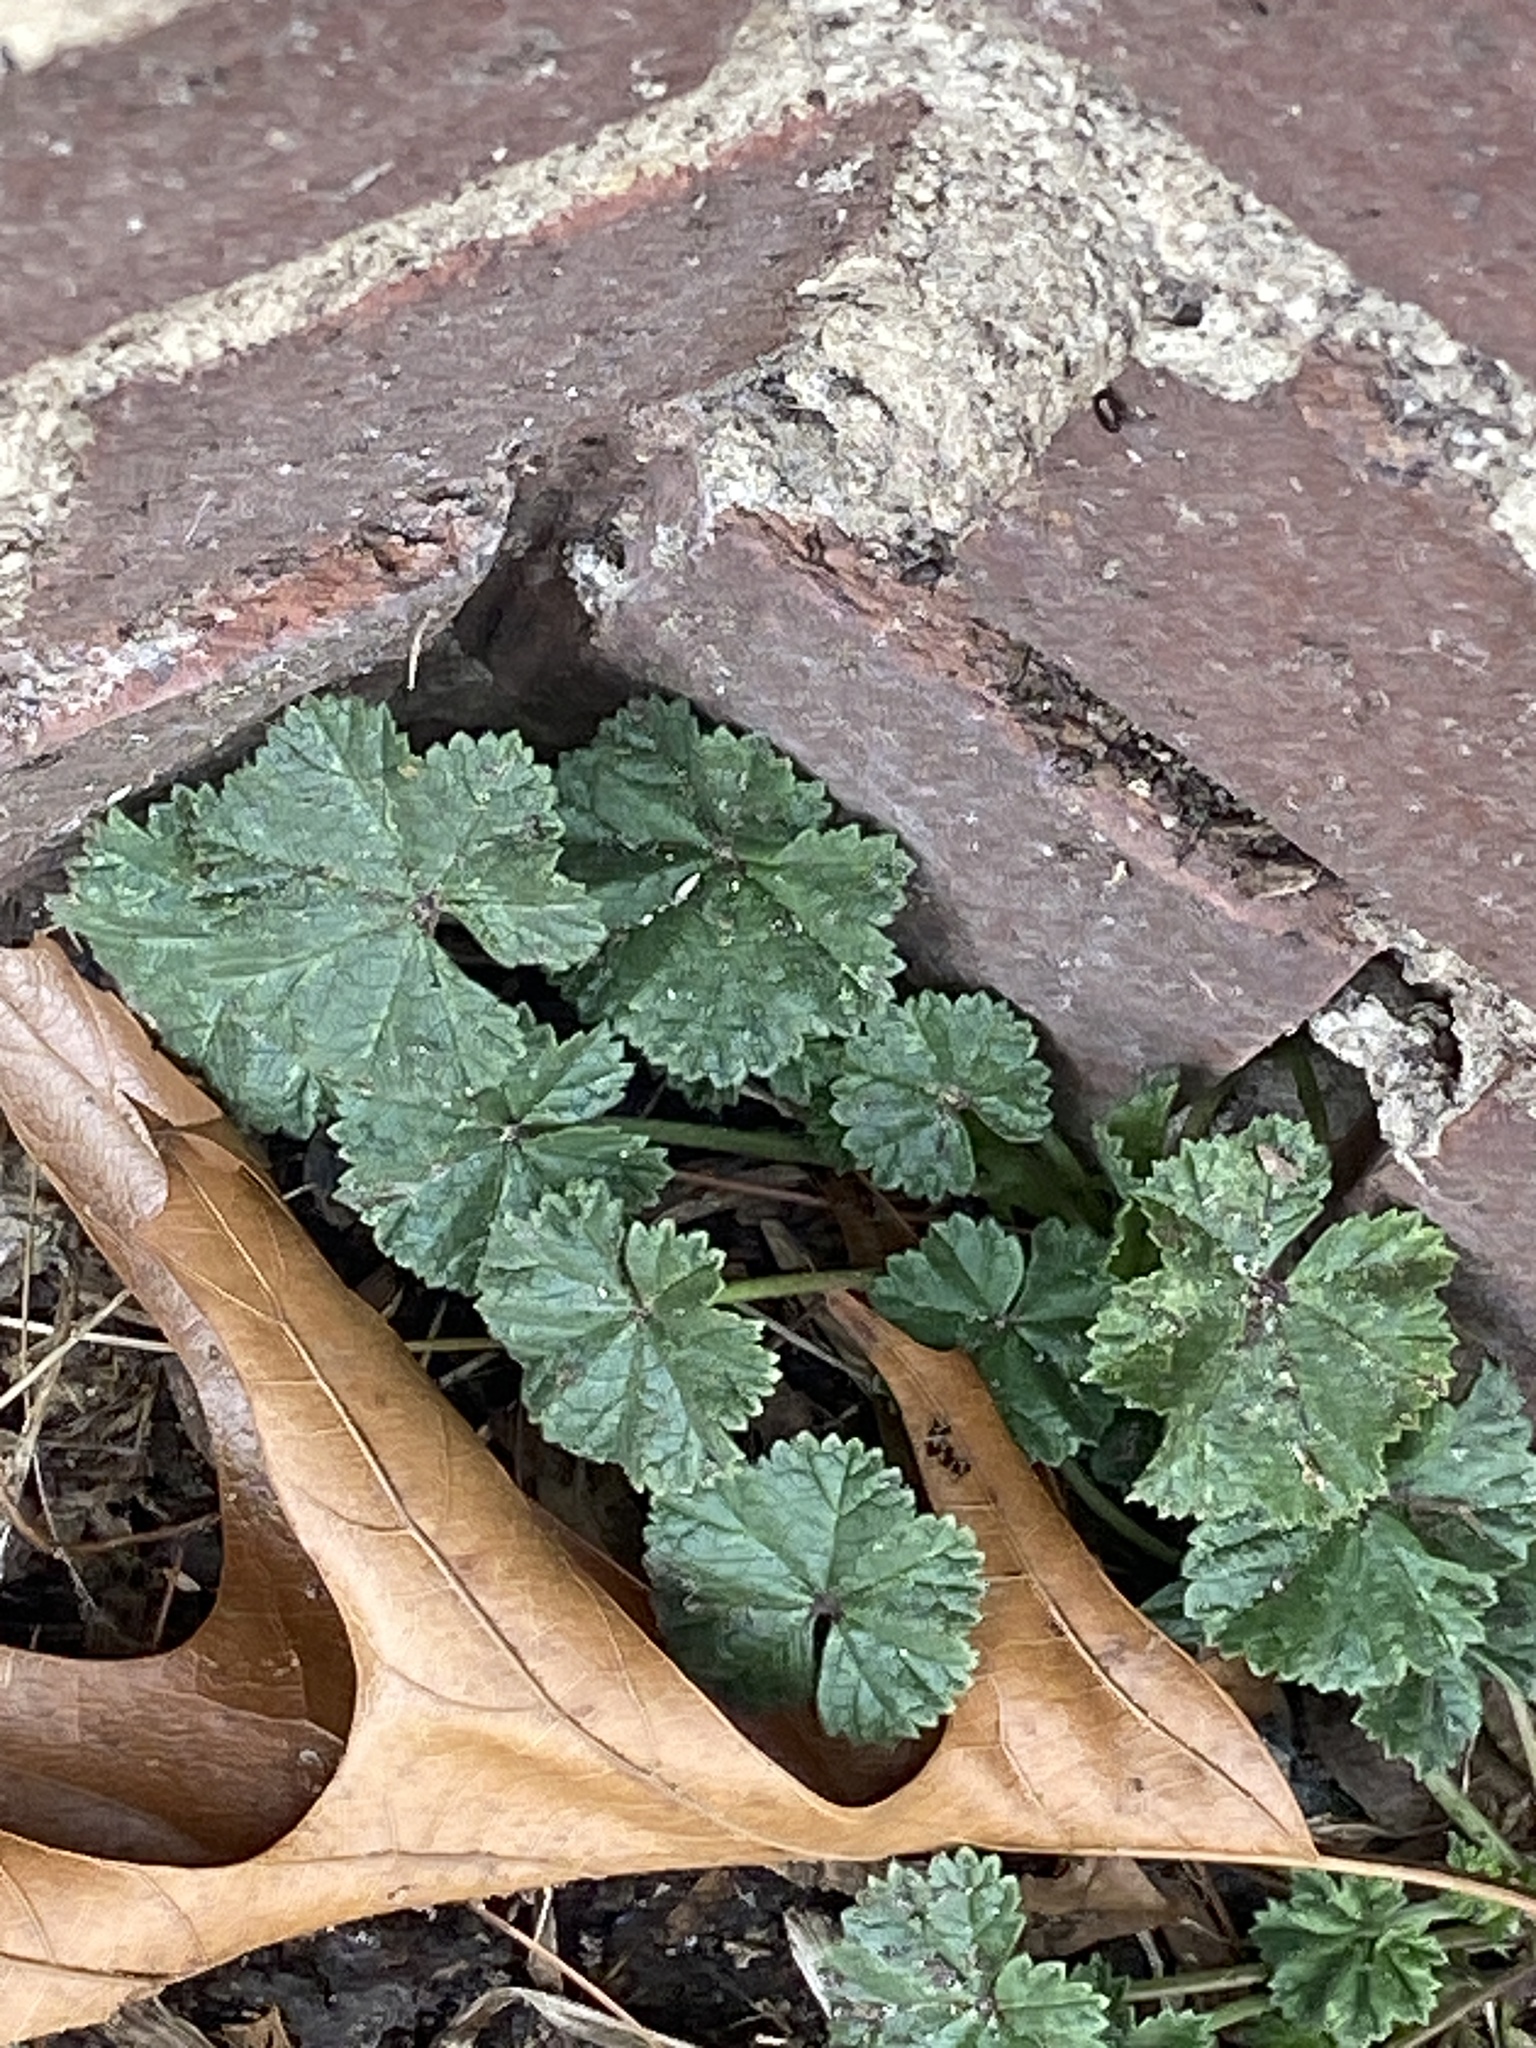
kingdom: Plantae
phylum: Tracheophyta
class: Magnoliopsida
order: Malvales
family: Malvaceae
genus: Malva
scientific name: Malva neglecta
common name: Common mallow
